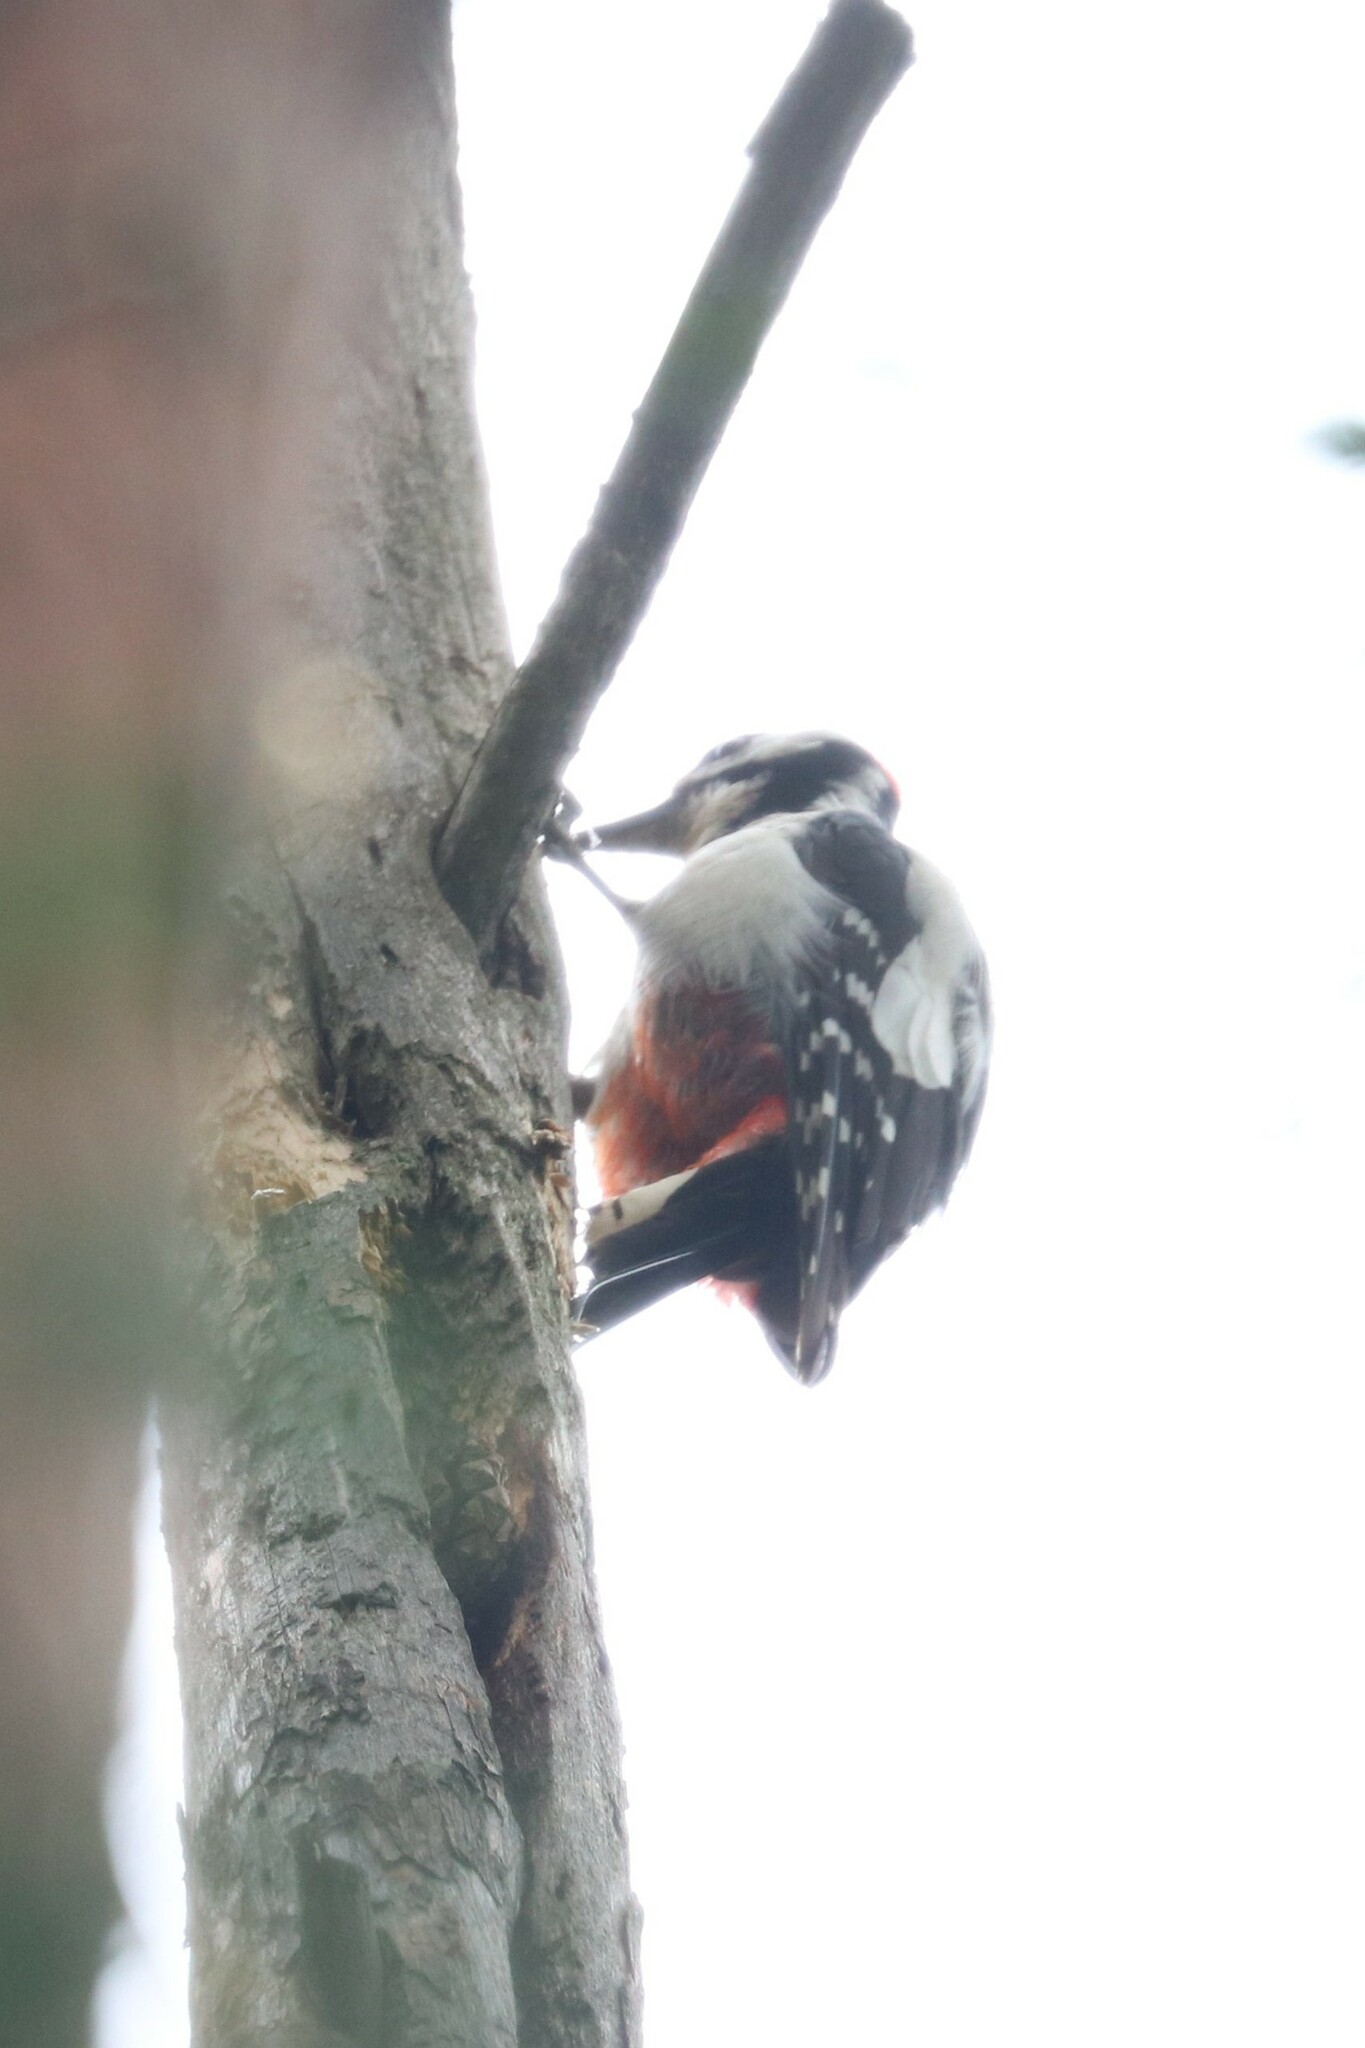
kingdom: Animalia
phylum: Chordata
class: Aves
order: Piciformes
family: Picidae
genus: Dendrocopos
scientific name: Dendrocopos major
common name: Great spotted woodpecker
